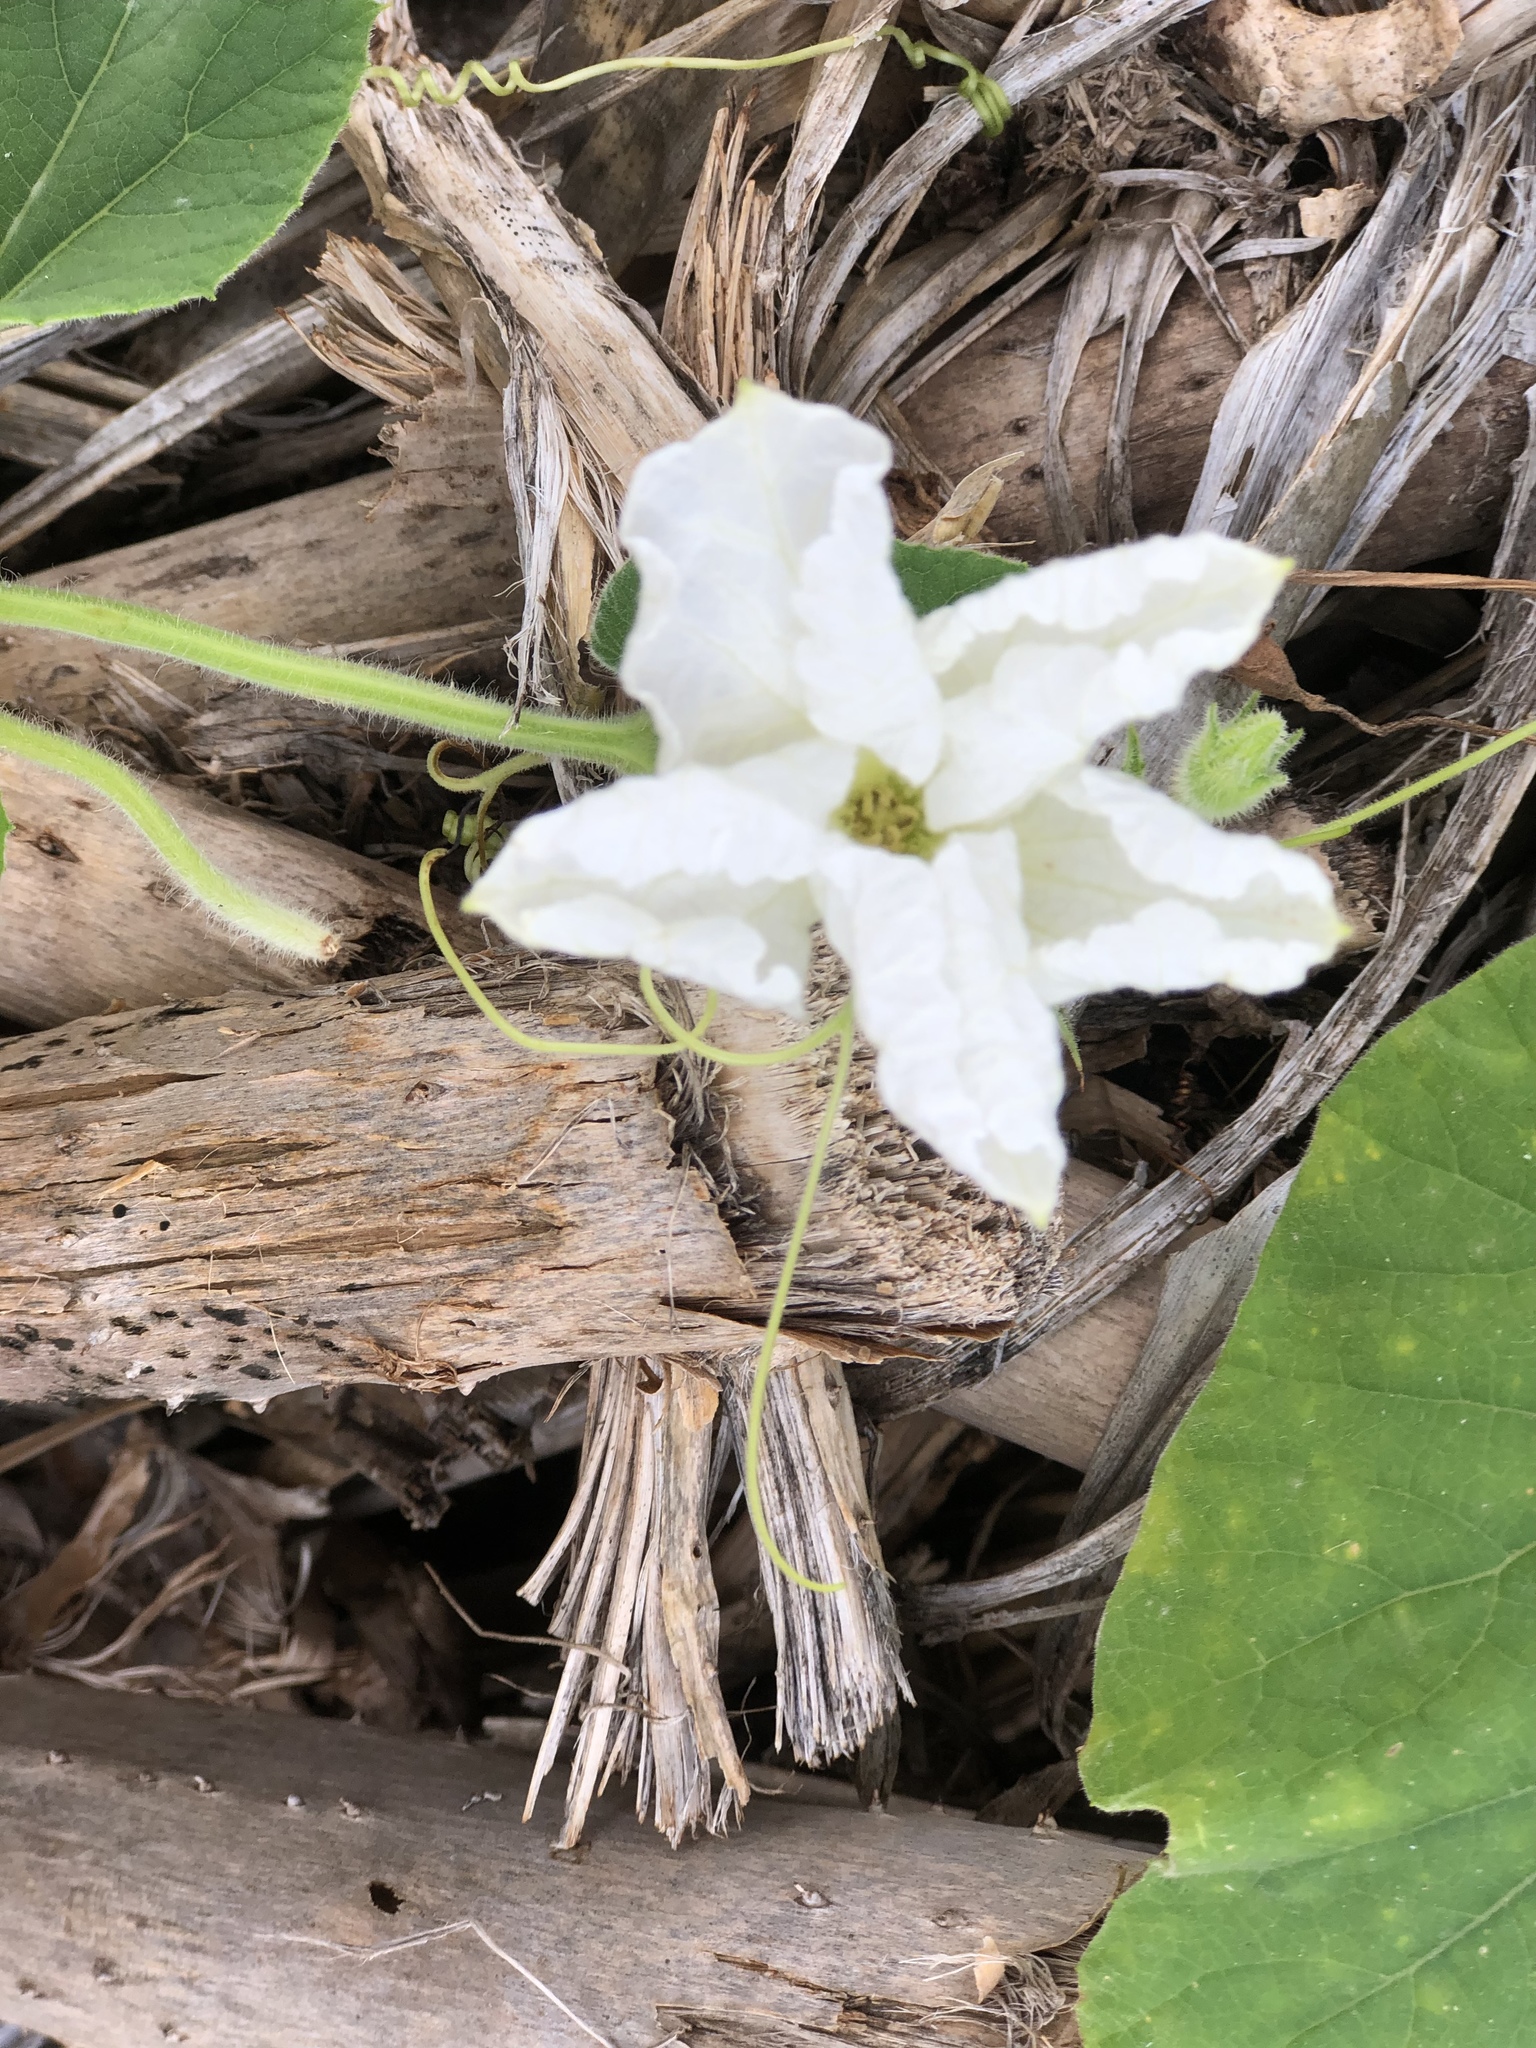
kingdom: Plantae
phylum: Tracheophyta
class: Magnoliopsida
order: Cucurbitales
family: Cucurbitaceae
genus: Lagenaria
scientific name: Lagenaria siceraria
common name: Bottle gourd
